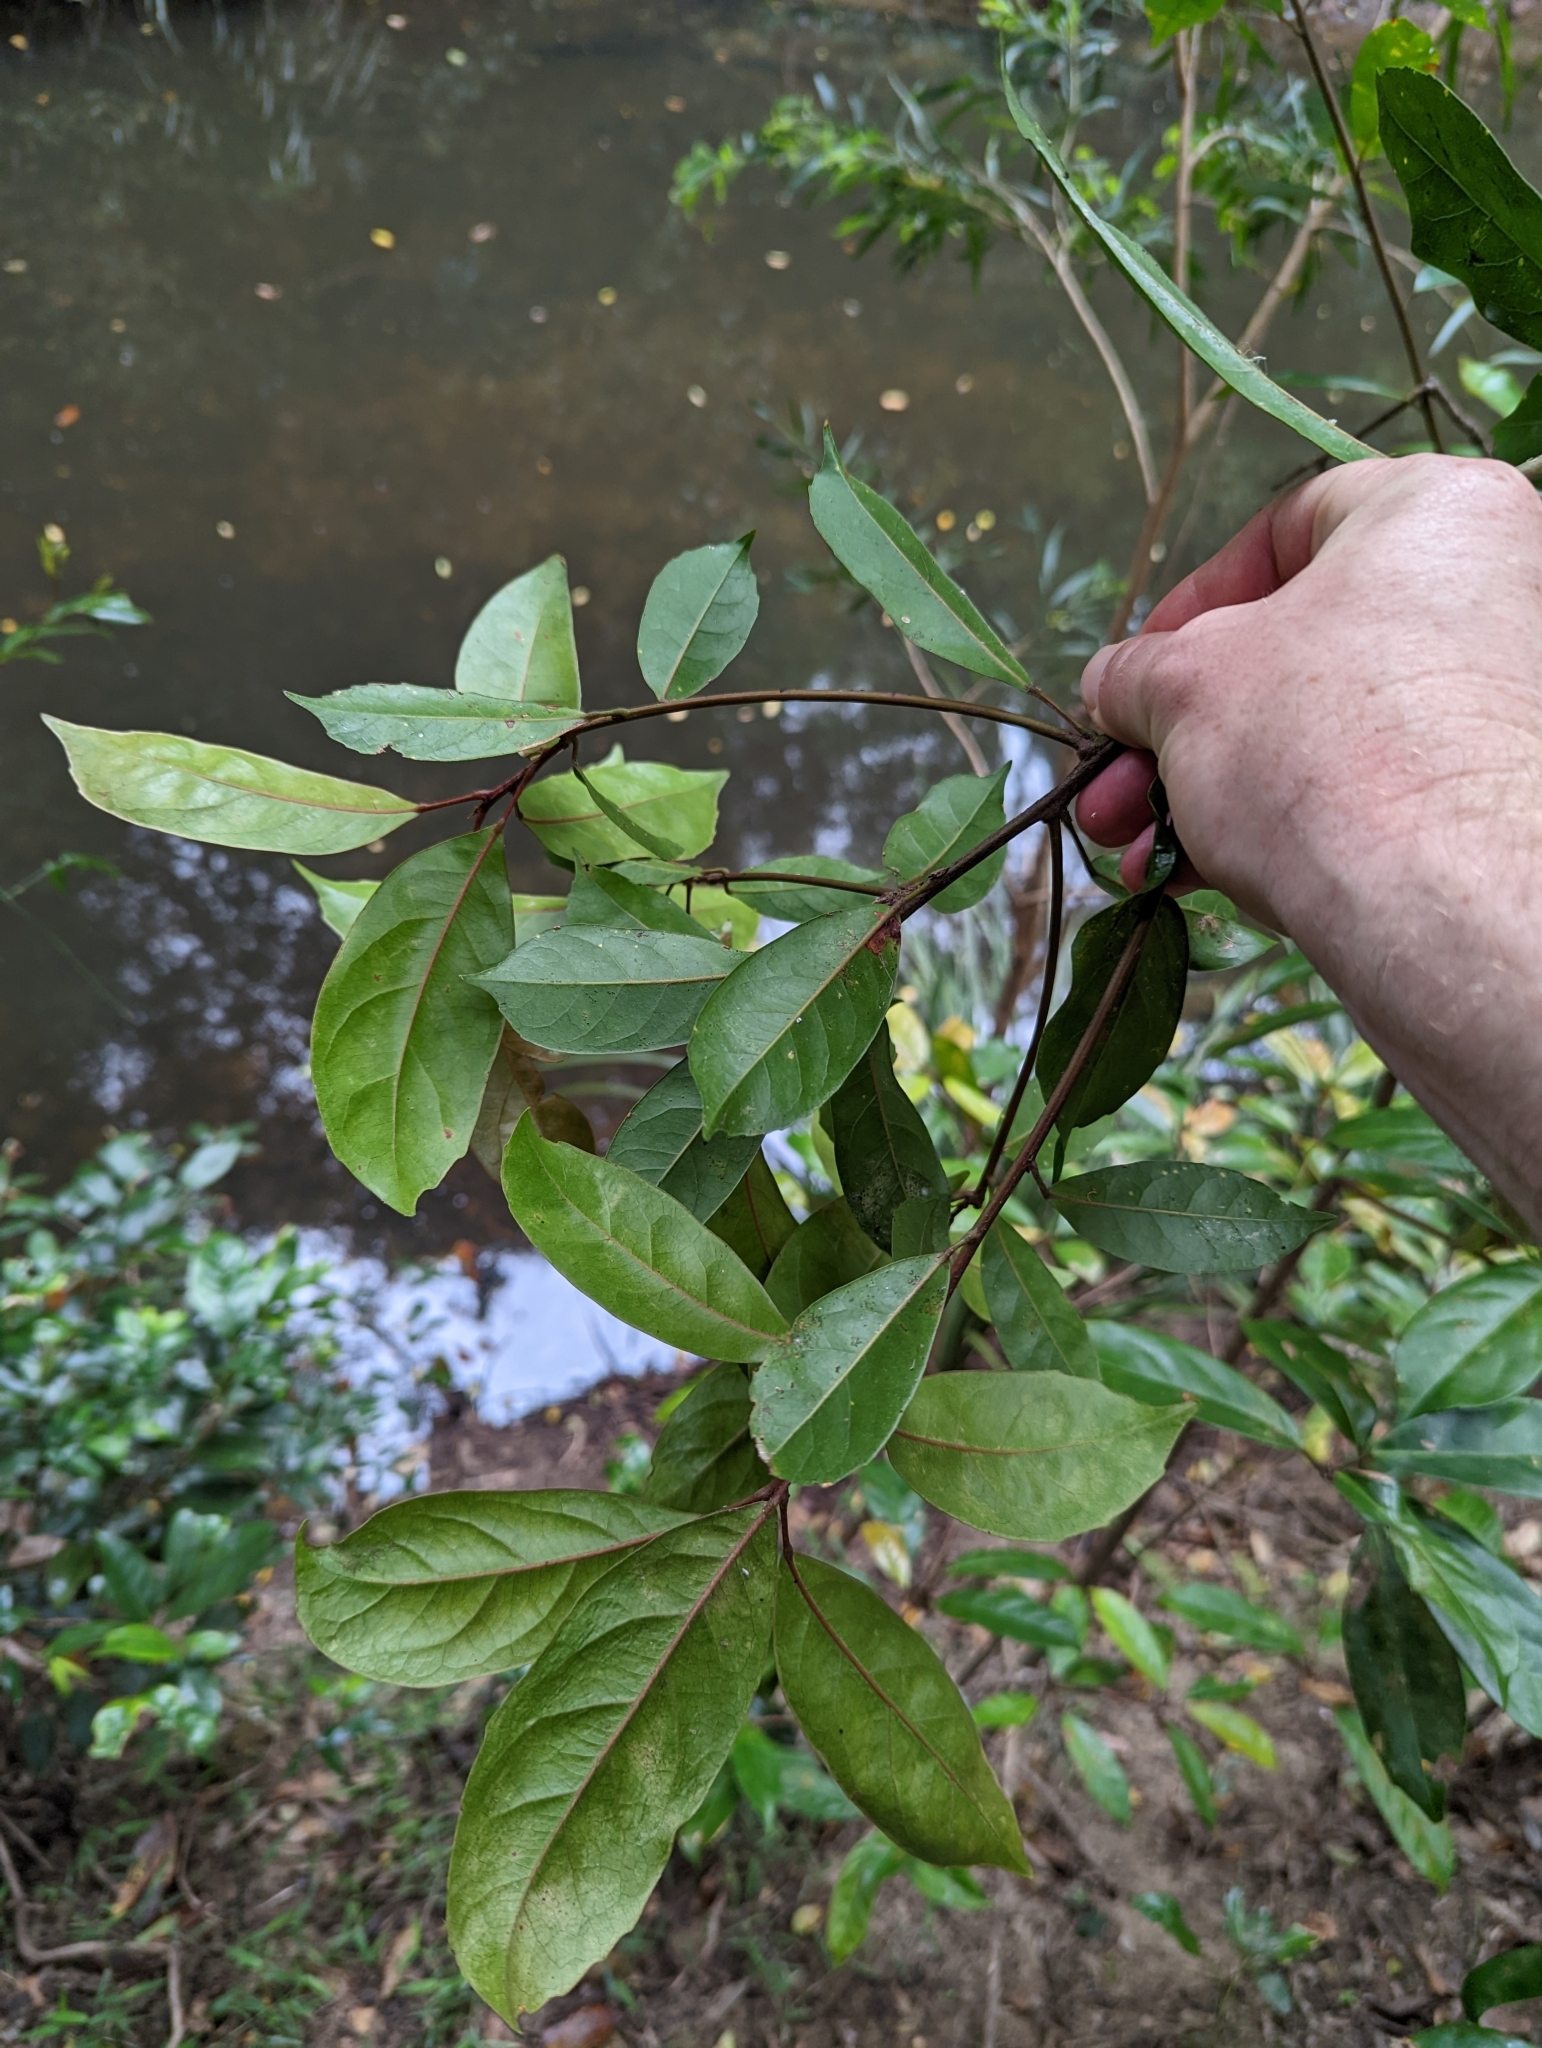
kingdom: Plantae
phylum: Tracheophyta
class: Magnoliopsida
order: Oxalidales
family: Elaeocarpaceae
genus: Elaeocarpus
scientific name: Elaeocarpus eumundi
